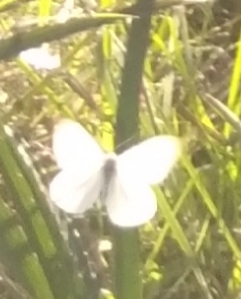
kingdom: Animalia
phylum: Arthropoda
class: Insecta
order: Lepidoptera
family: Pieridae
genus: Theochila
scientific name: Theochila maenacte
